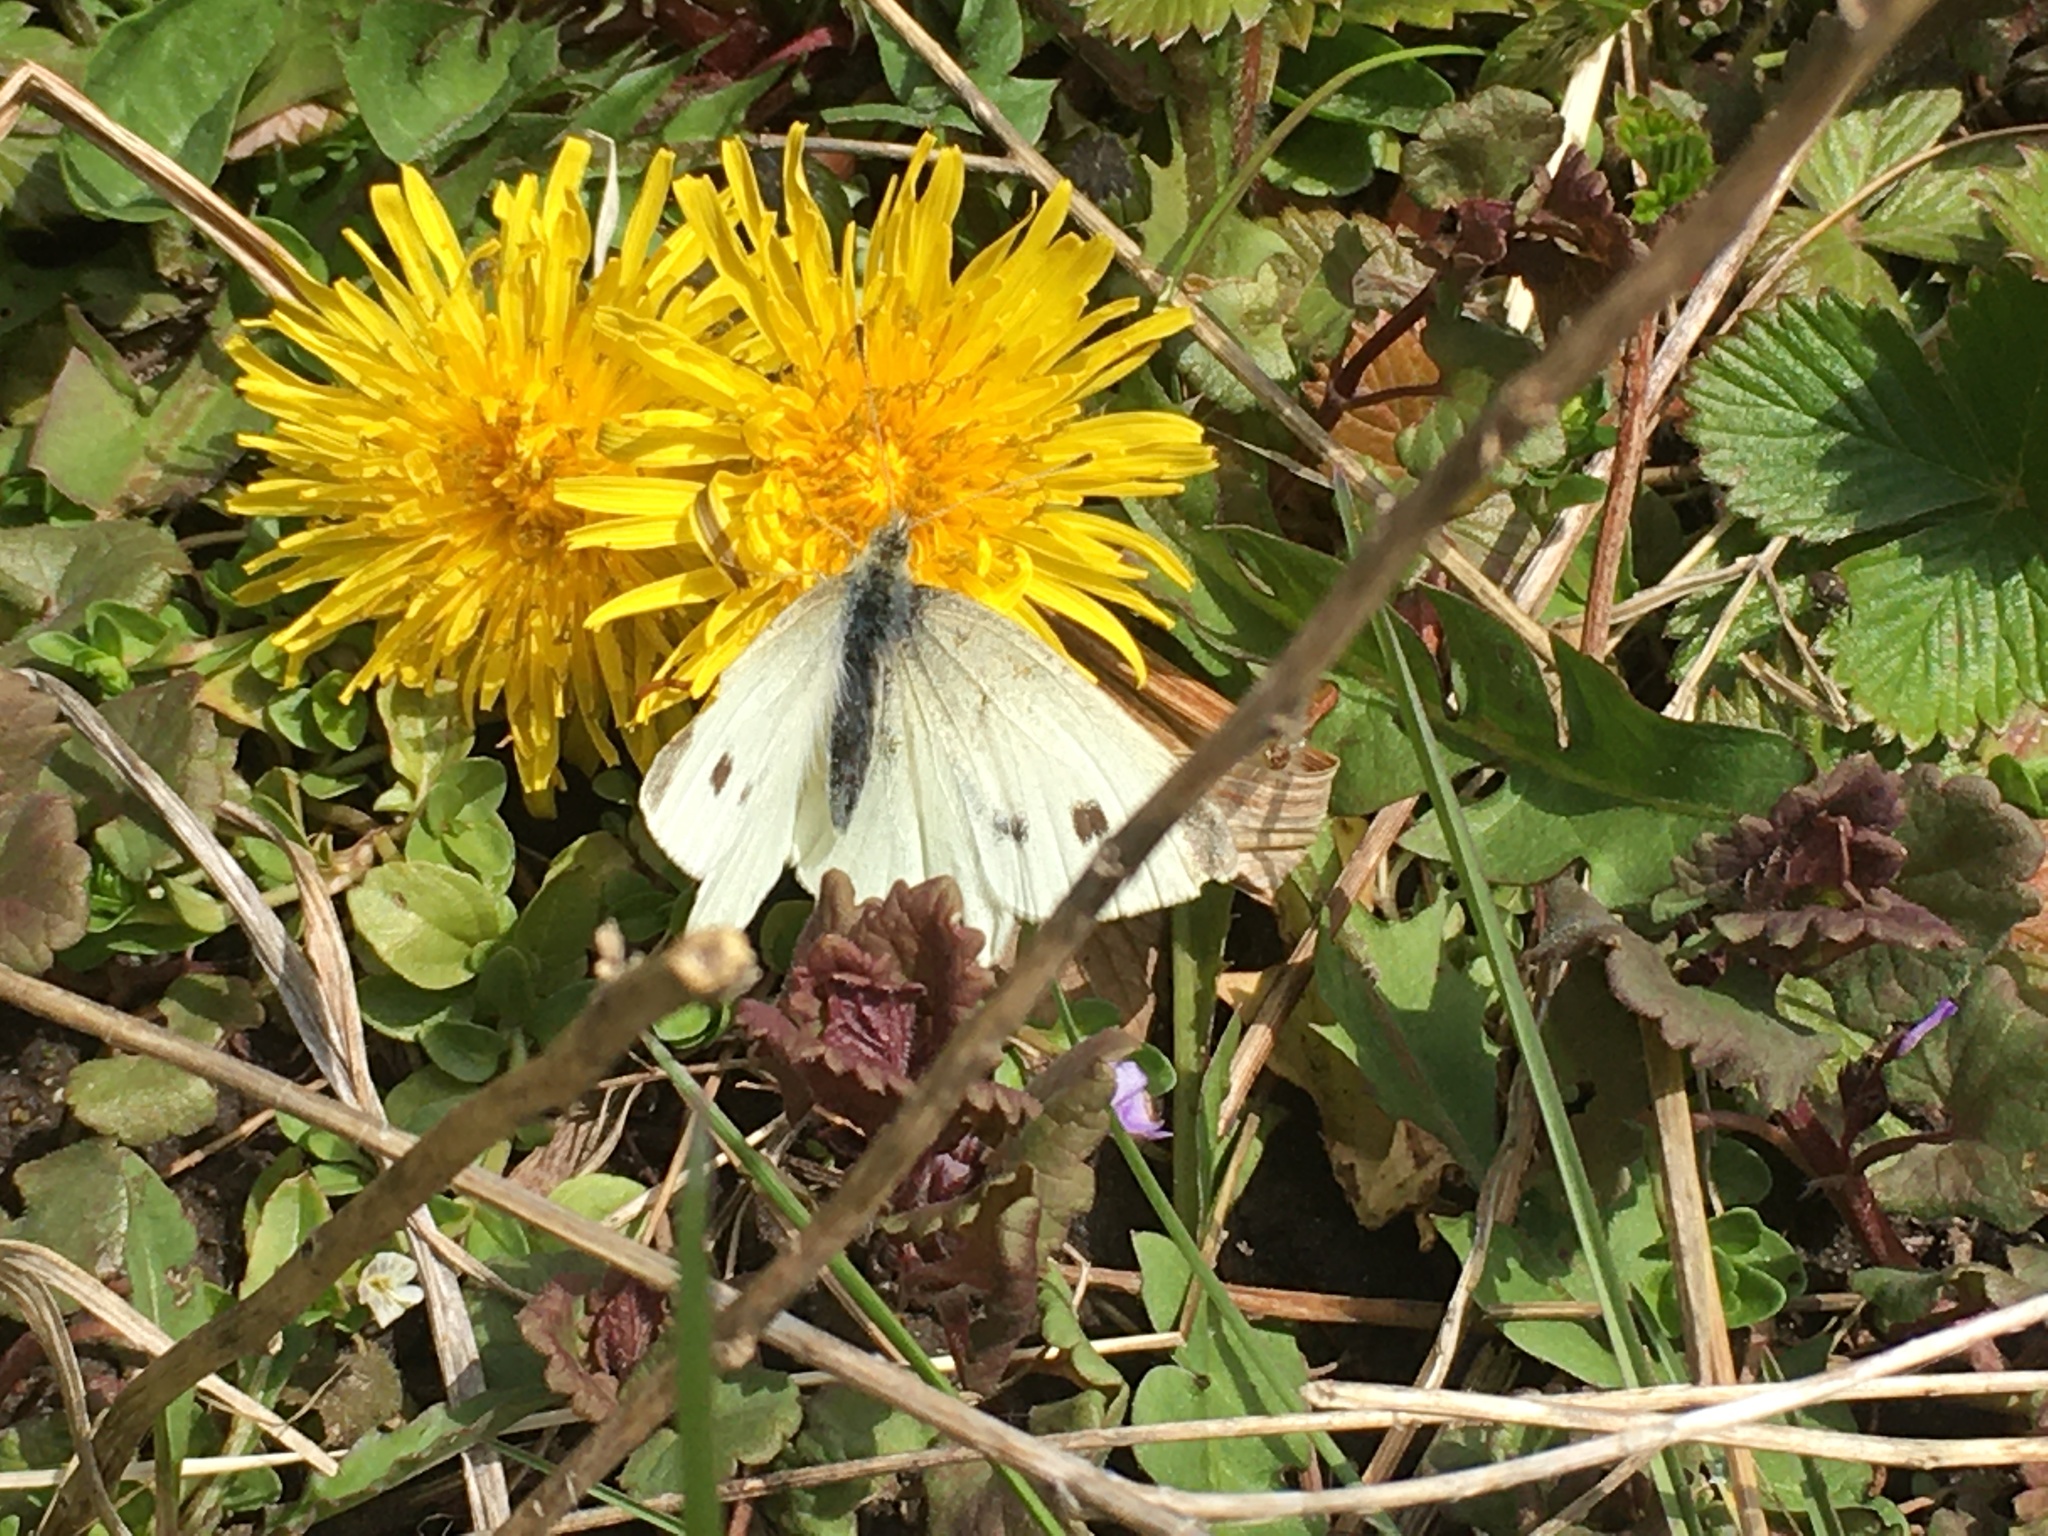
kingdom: Animalia
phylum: Arthropoda
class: Insecta
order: Lepidoptera
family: Pieridae
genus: Pieris
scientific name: Pieris rapae
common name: Small white
